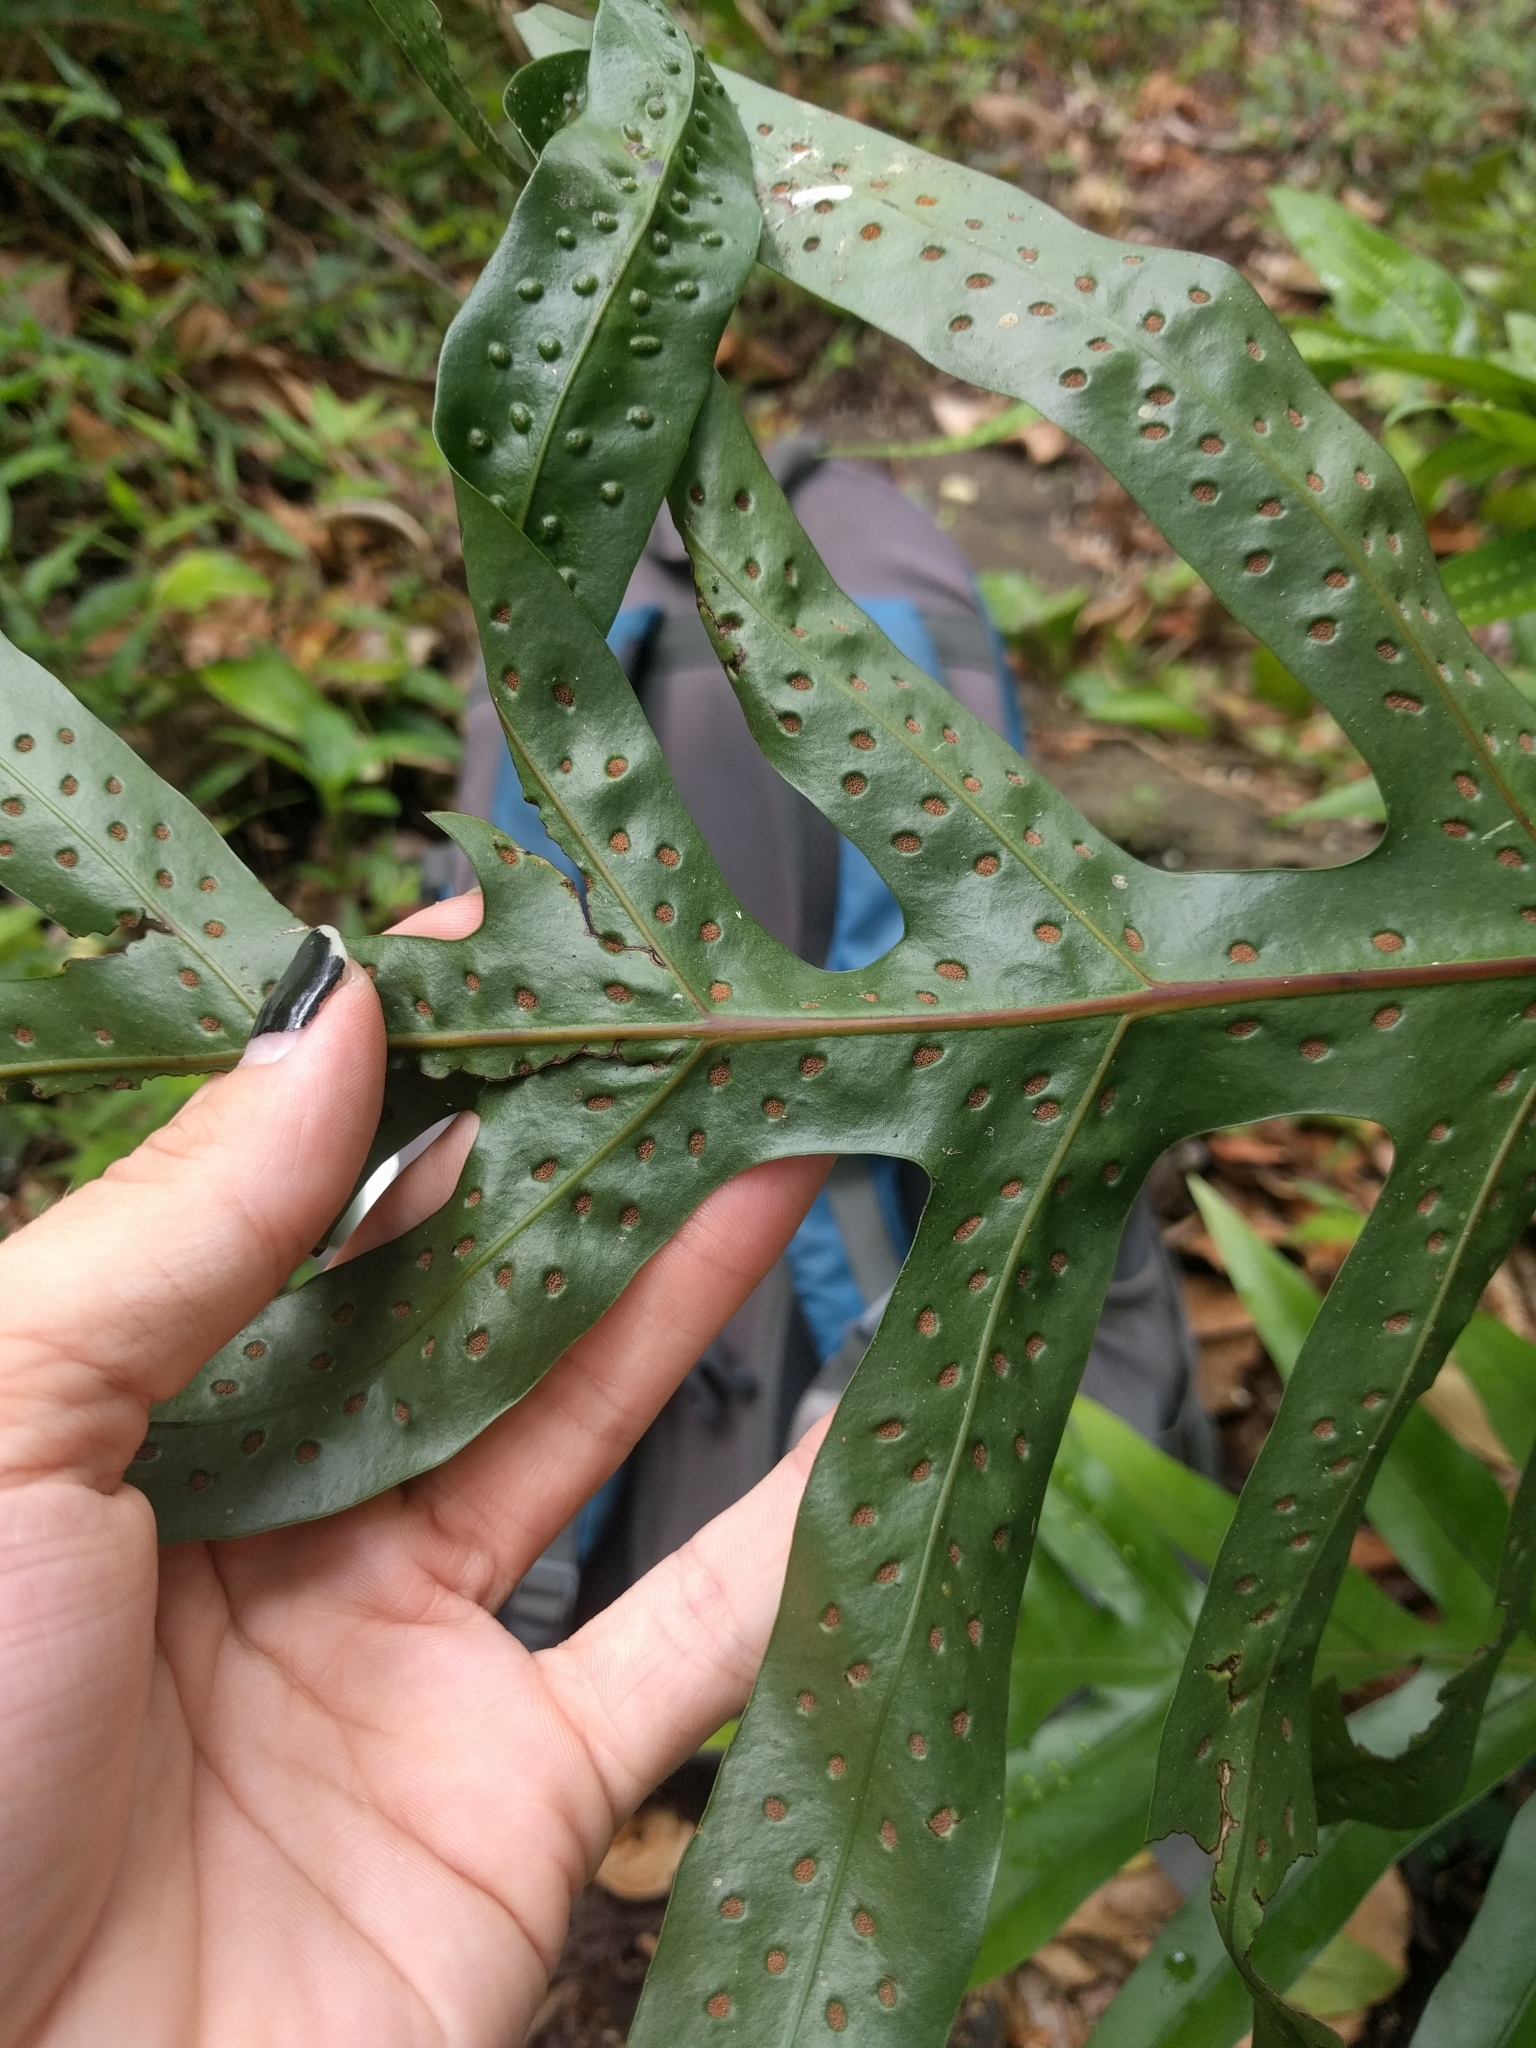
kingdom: Plantae
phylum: Tracheophyta
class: Polypodiopsida
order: Polypodiales
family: Polypodiaceae
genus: Microsorum
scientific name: Microsorum grossum
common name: Musk fern
